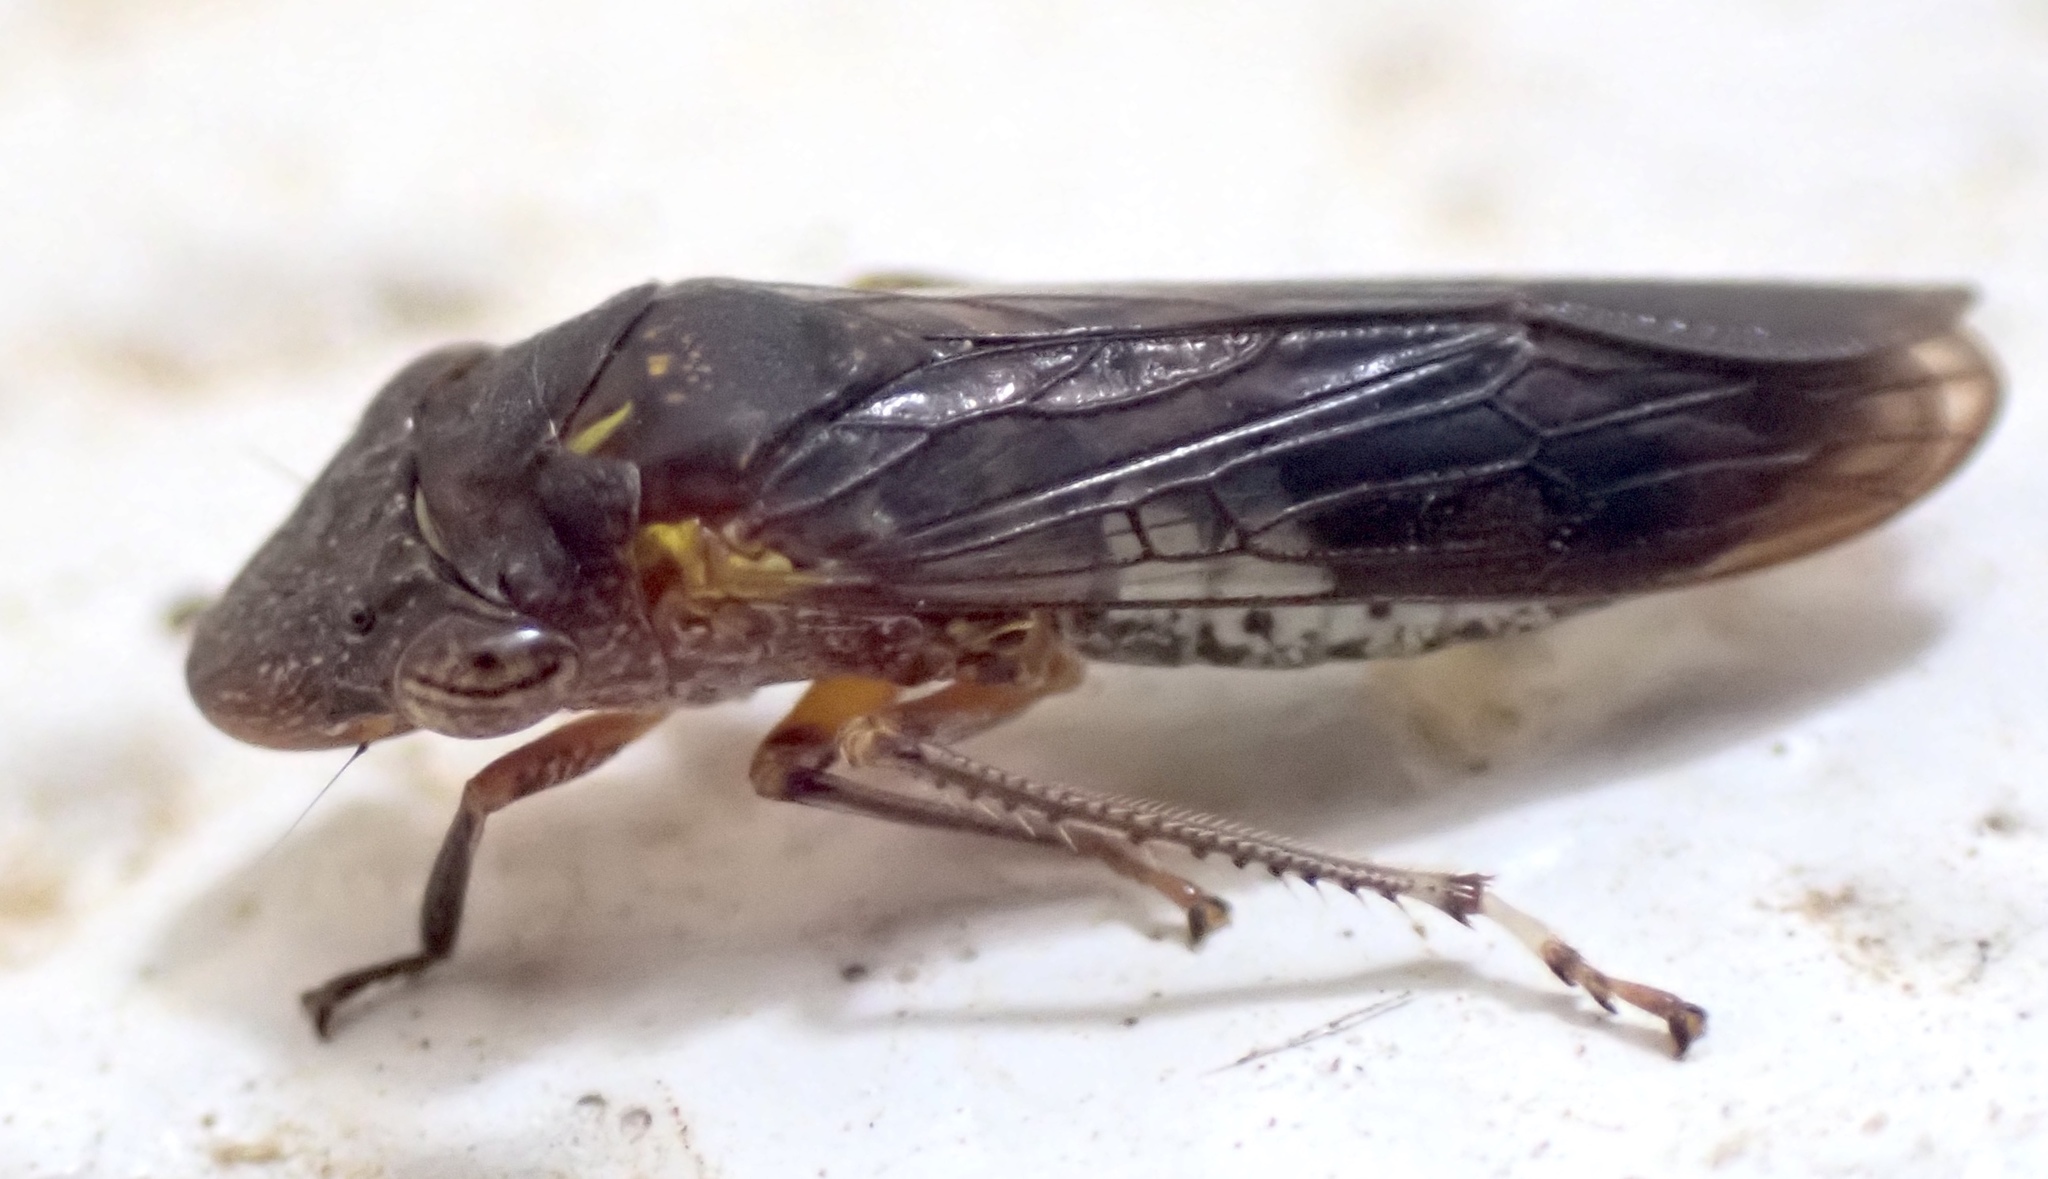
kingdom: Animalia
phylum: Arthropoda
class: Insecta
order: Hemiptera
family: Cicadellidae
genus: Homalodisca
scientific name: Homalodisca vitripennis
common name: Glassy-winged sharpshooter
